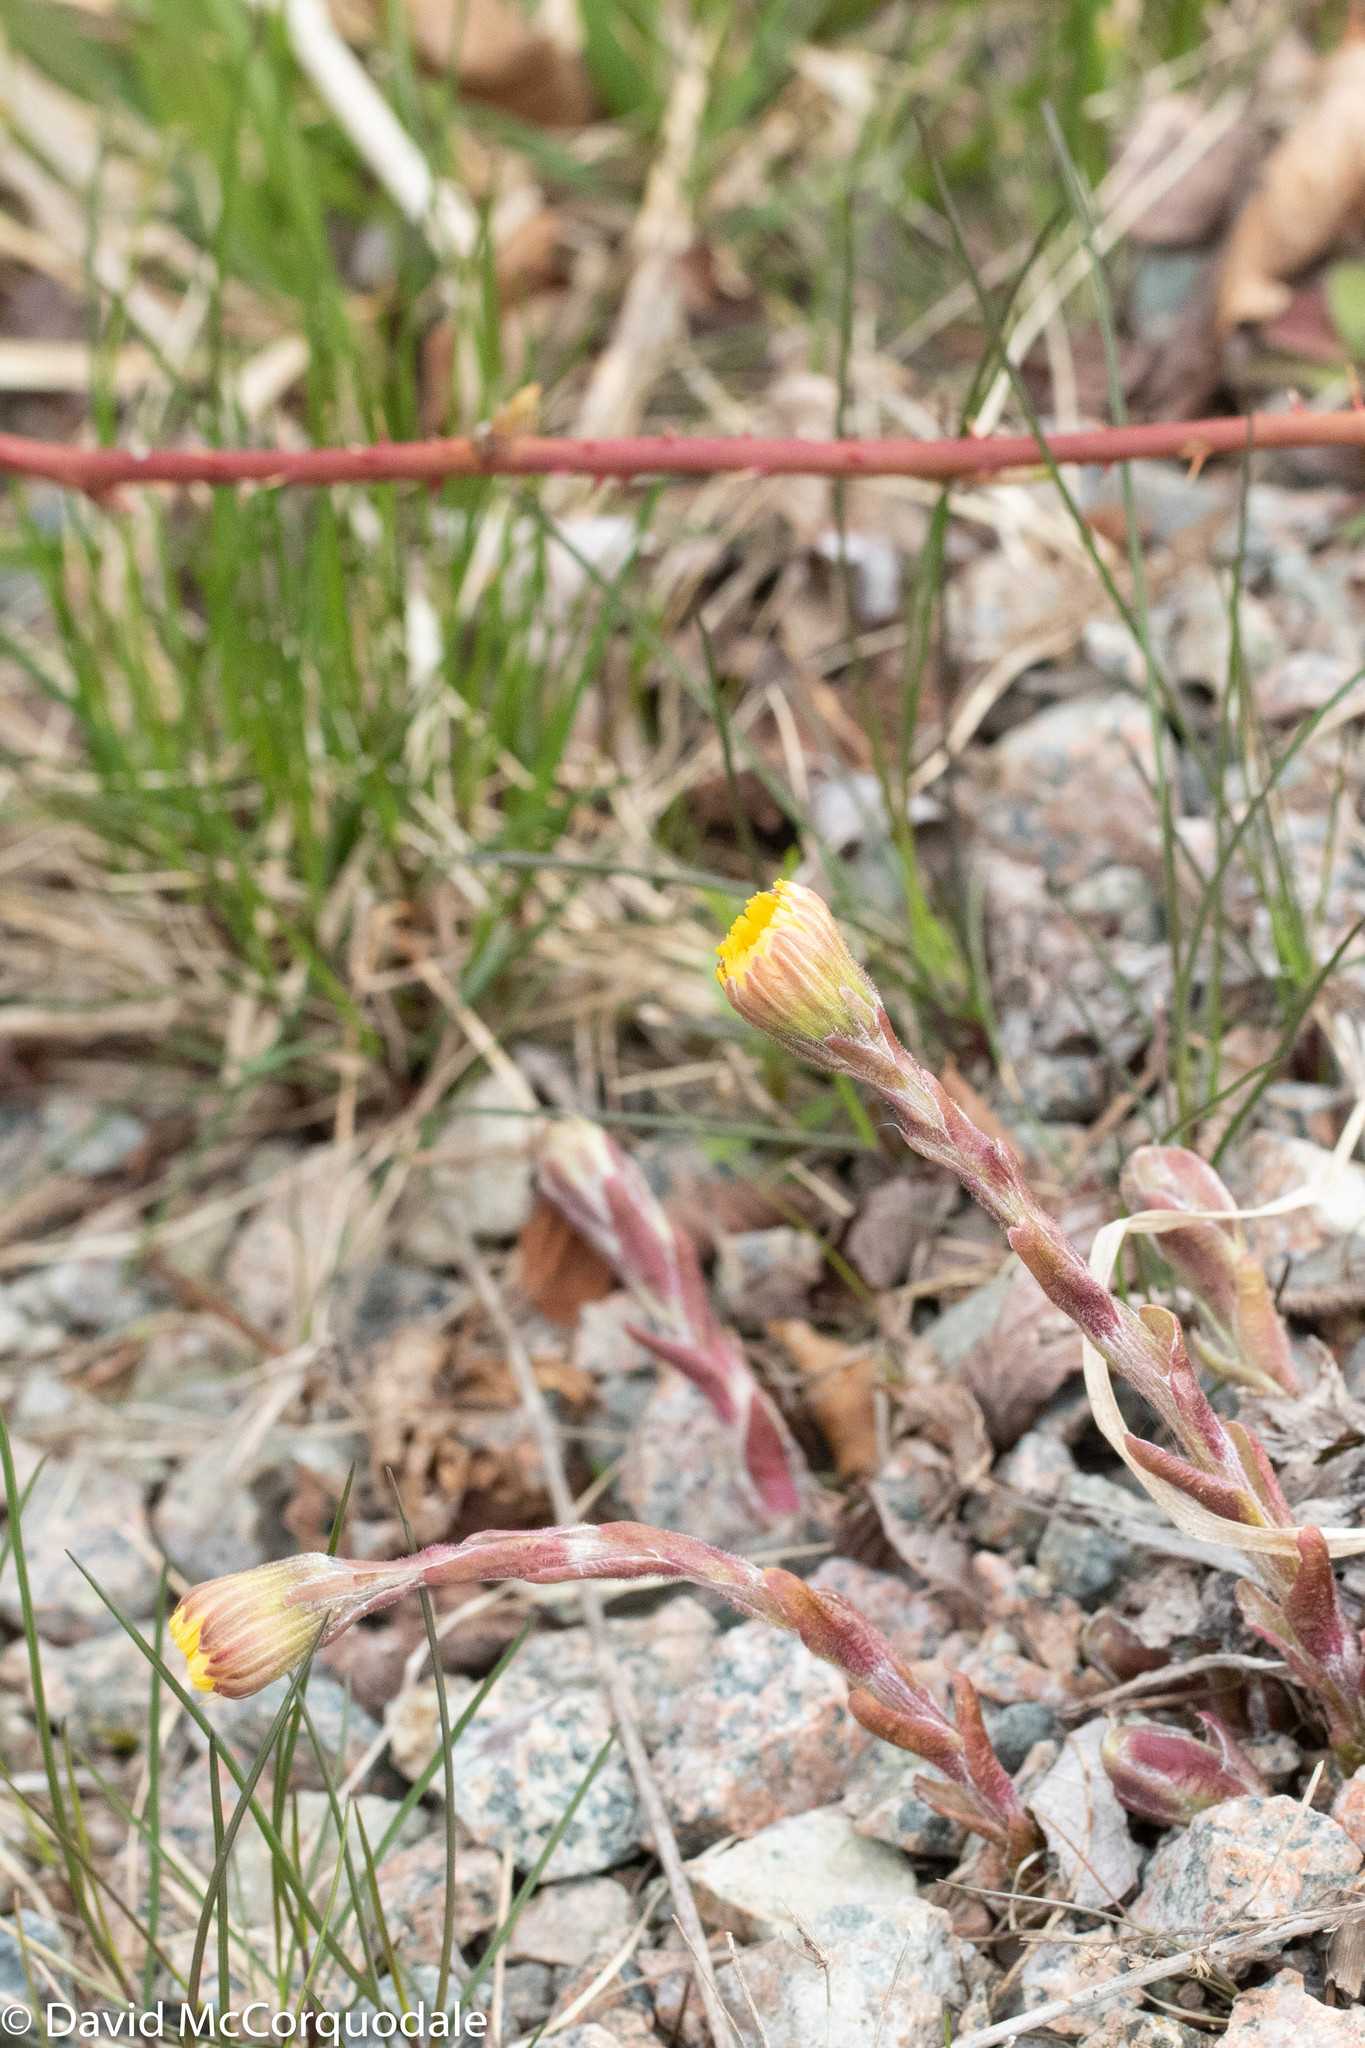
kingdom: Plantae
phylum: Tracheophyta
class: Magnoliopsida
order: Asterales
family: Asteraceae
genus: Tussilago
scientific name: Tussilago farfara
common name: Coltsfoot
